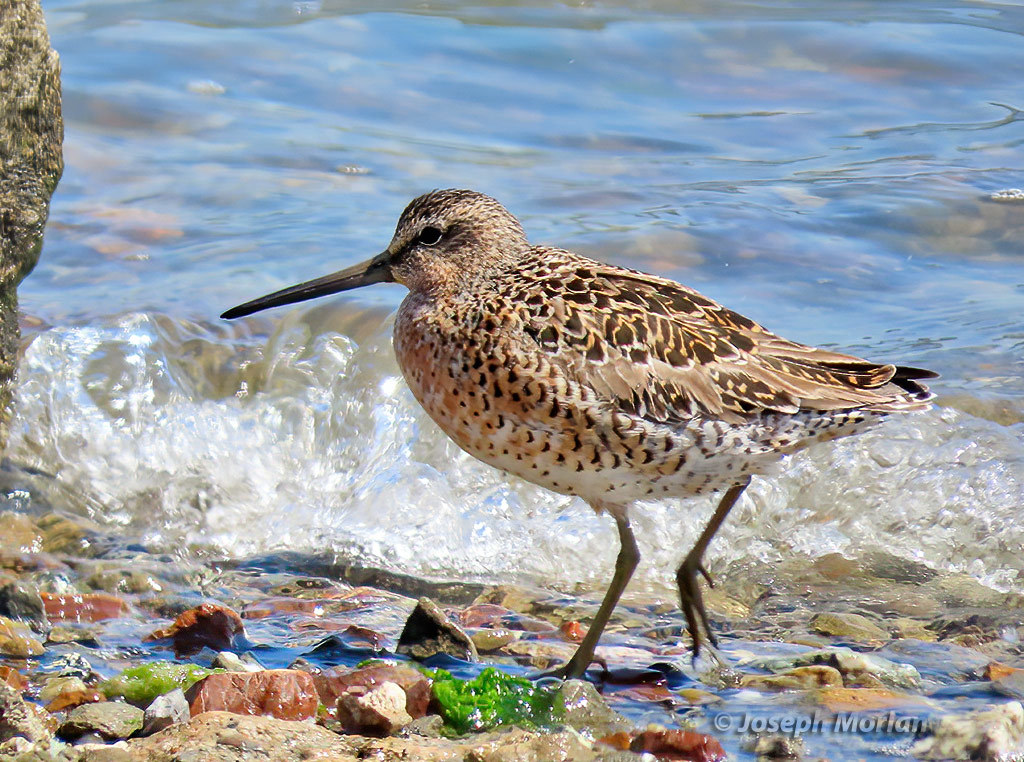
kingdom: Animalia
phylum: Chordata
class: Aves
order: Charadriiformes
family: Scolopacidae
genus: Limnodromus
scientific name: Limnodromus griseus
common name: Short-billed dowitcher
